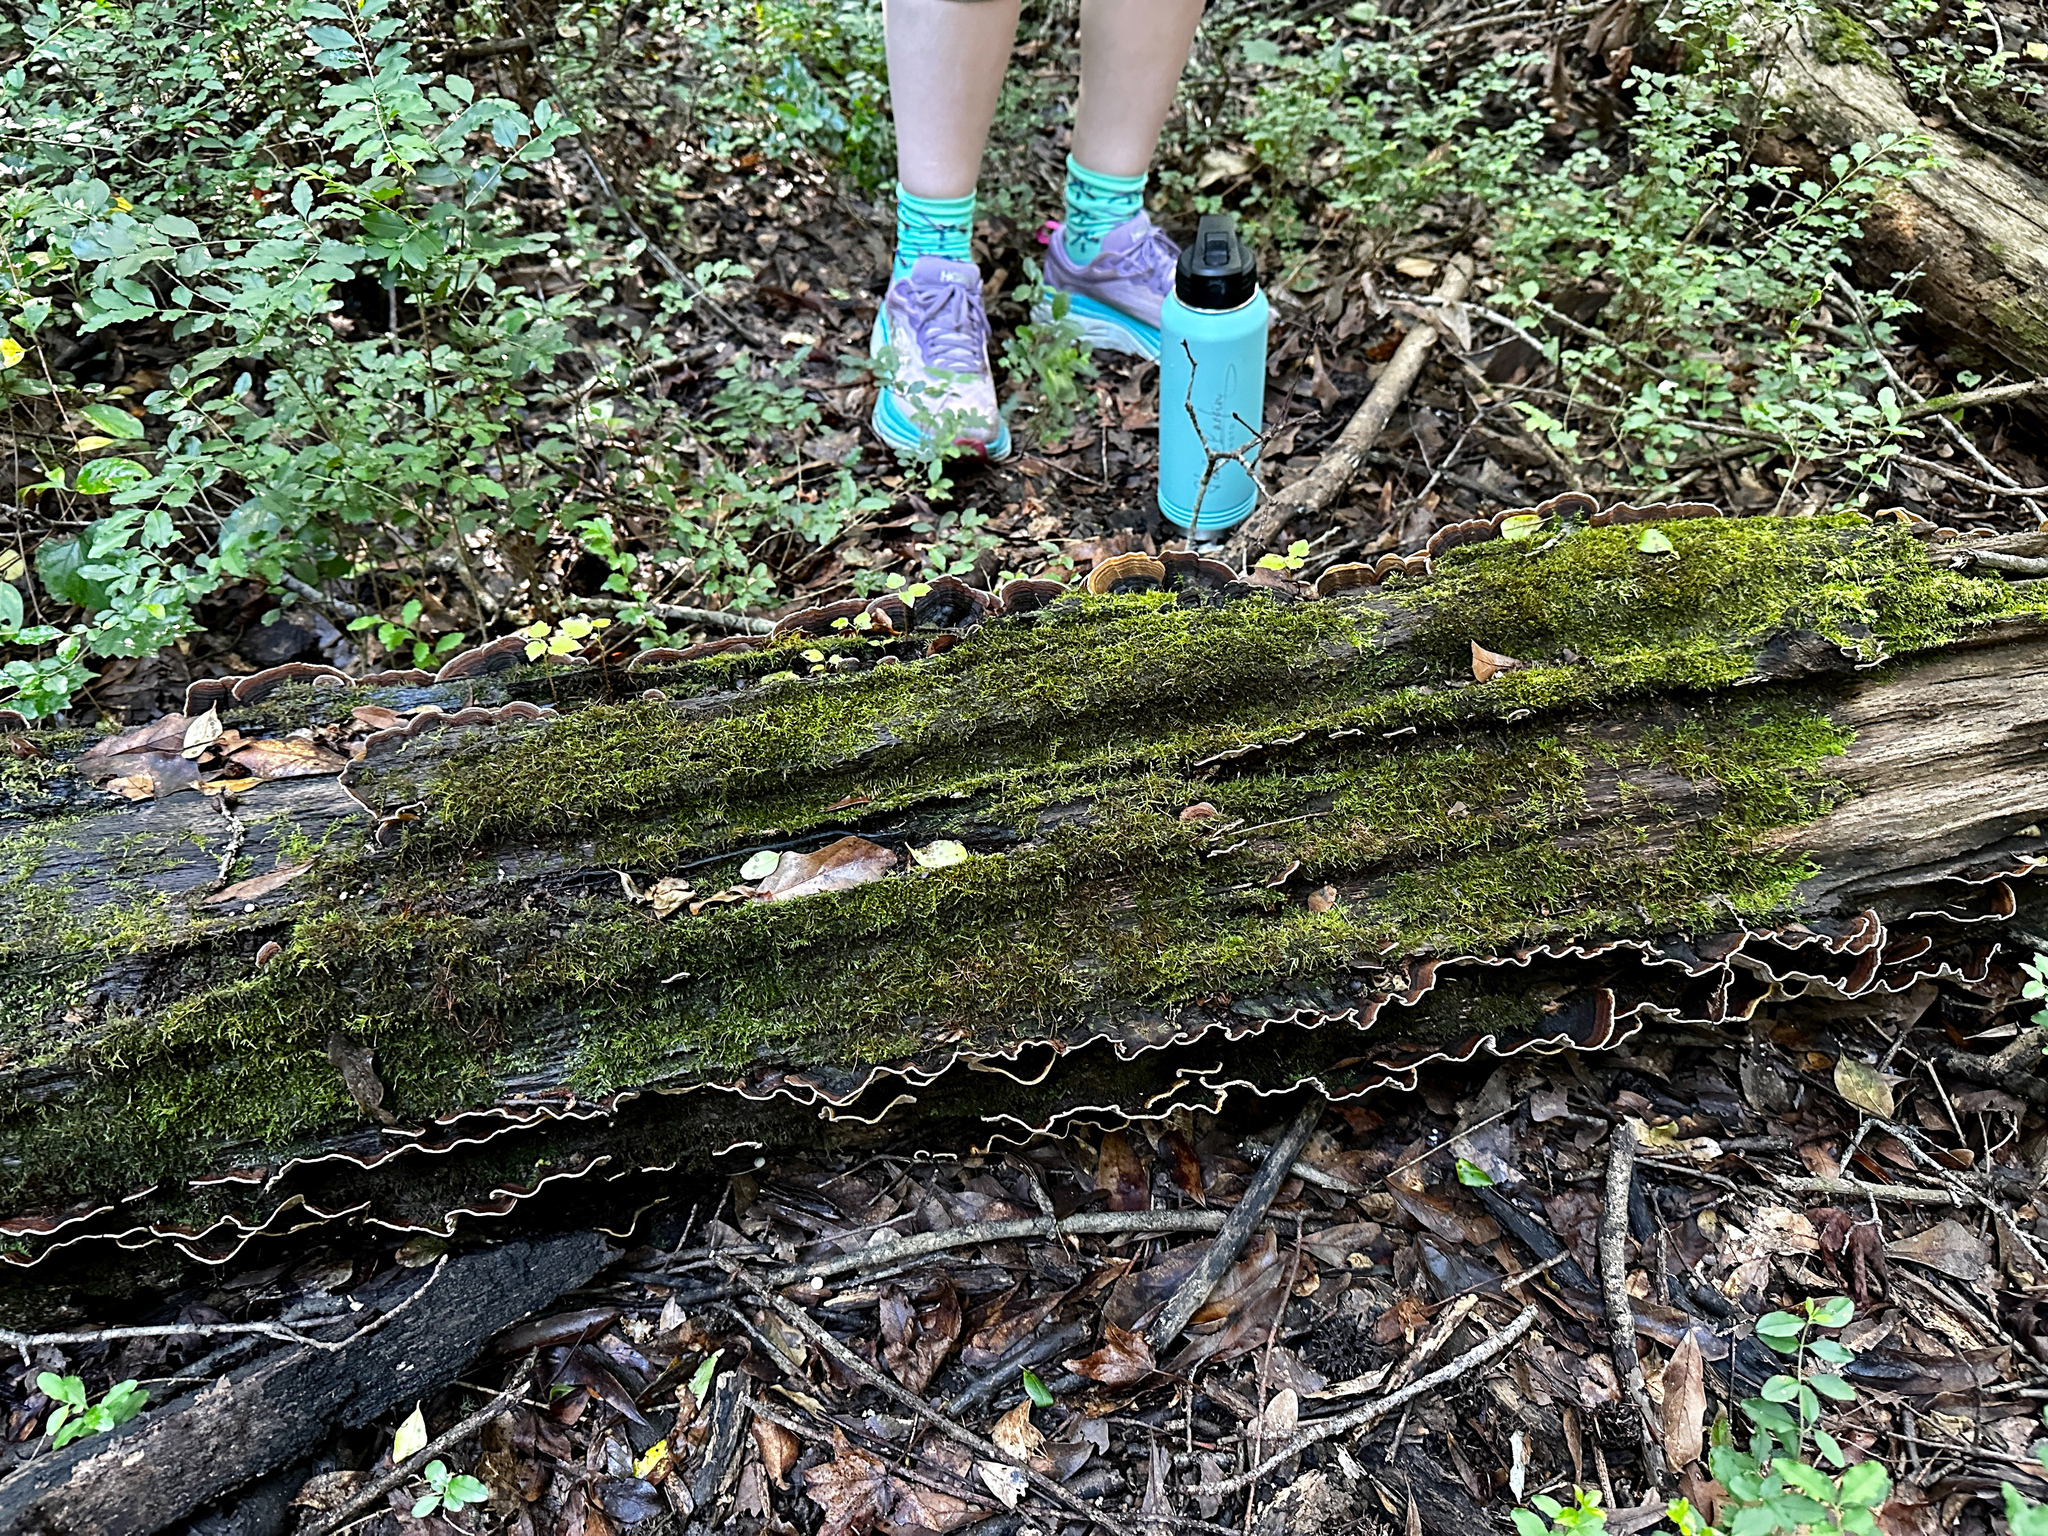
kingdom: Fungi
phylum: Basidiomycota
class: Agaricomycetes
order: Russulales
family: Stereaceae
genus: Xylobolus
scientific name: Xylobolus subpileatus
